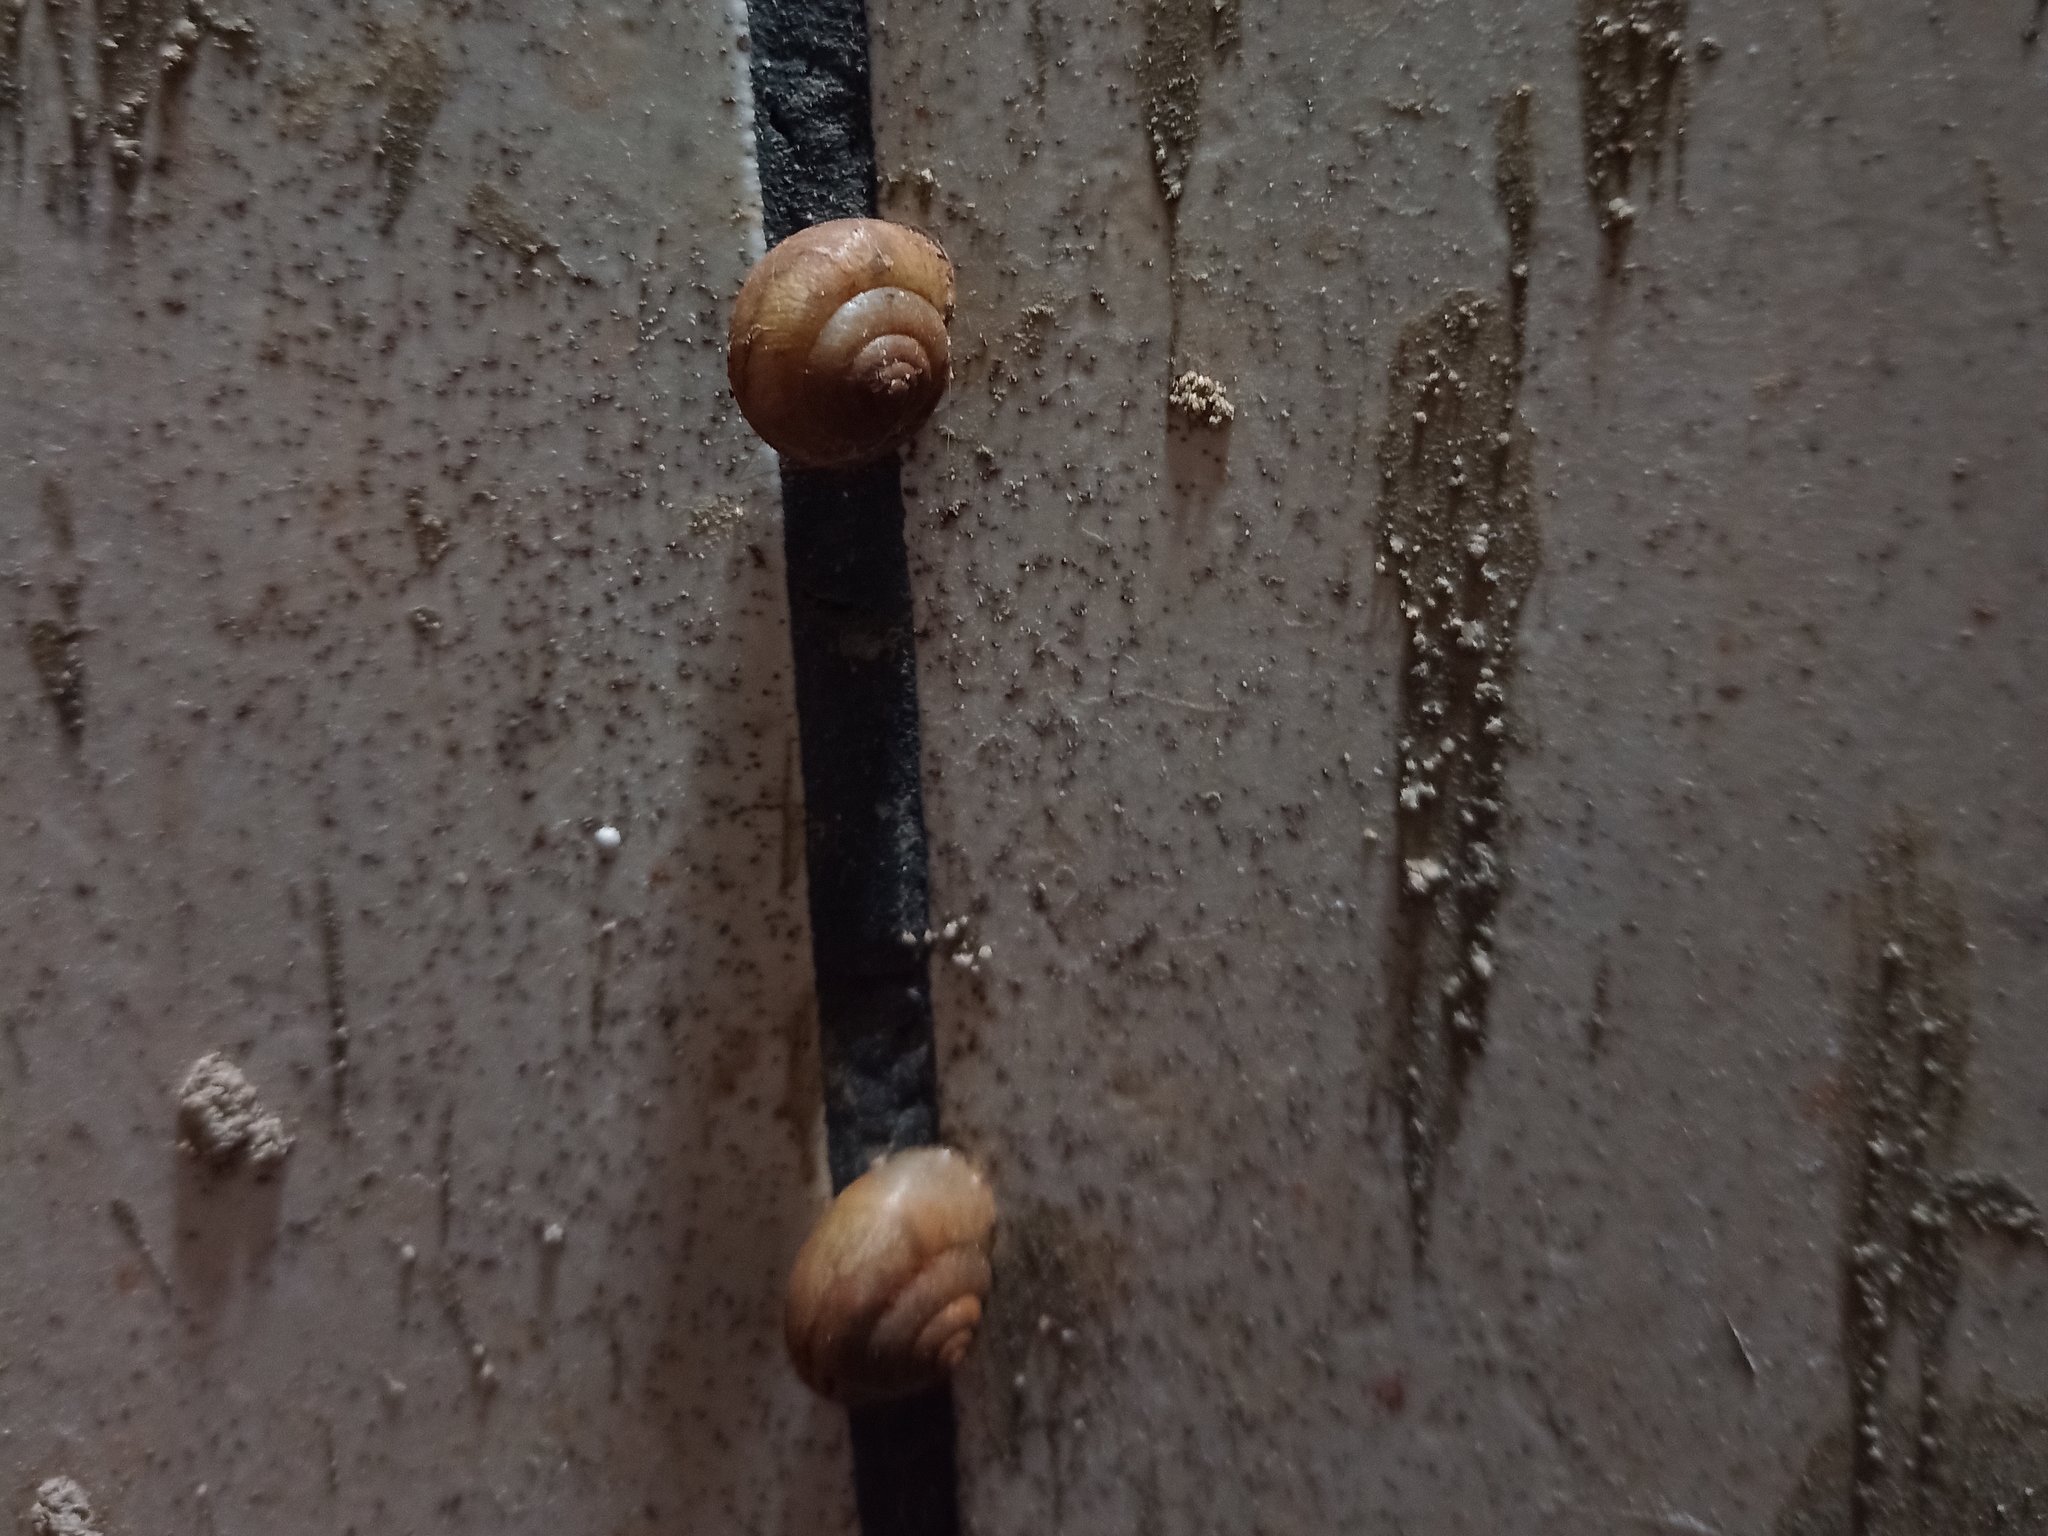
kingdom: Animalia
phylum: Mollusca
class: Gastropoda
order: Stylommatophora
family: Camaenidae
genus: Bradybaena
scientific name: Bradybaena similaris
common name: Asian trampsnail
